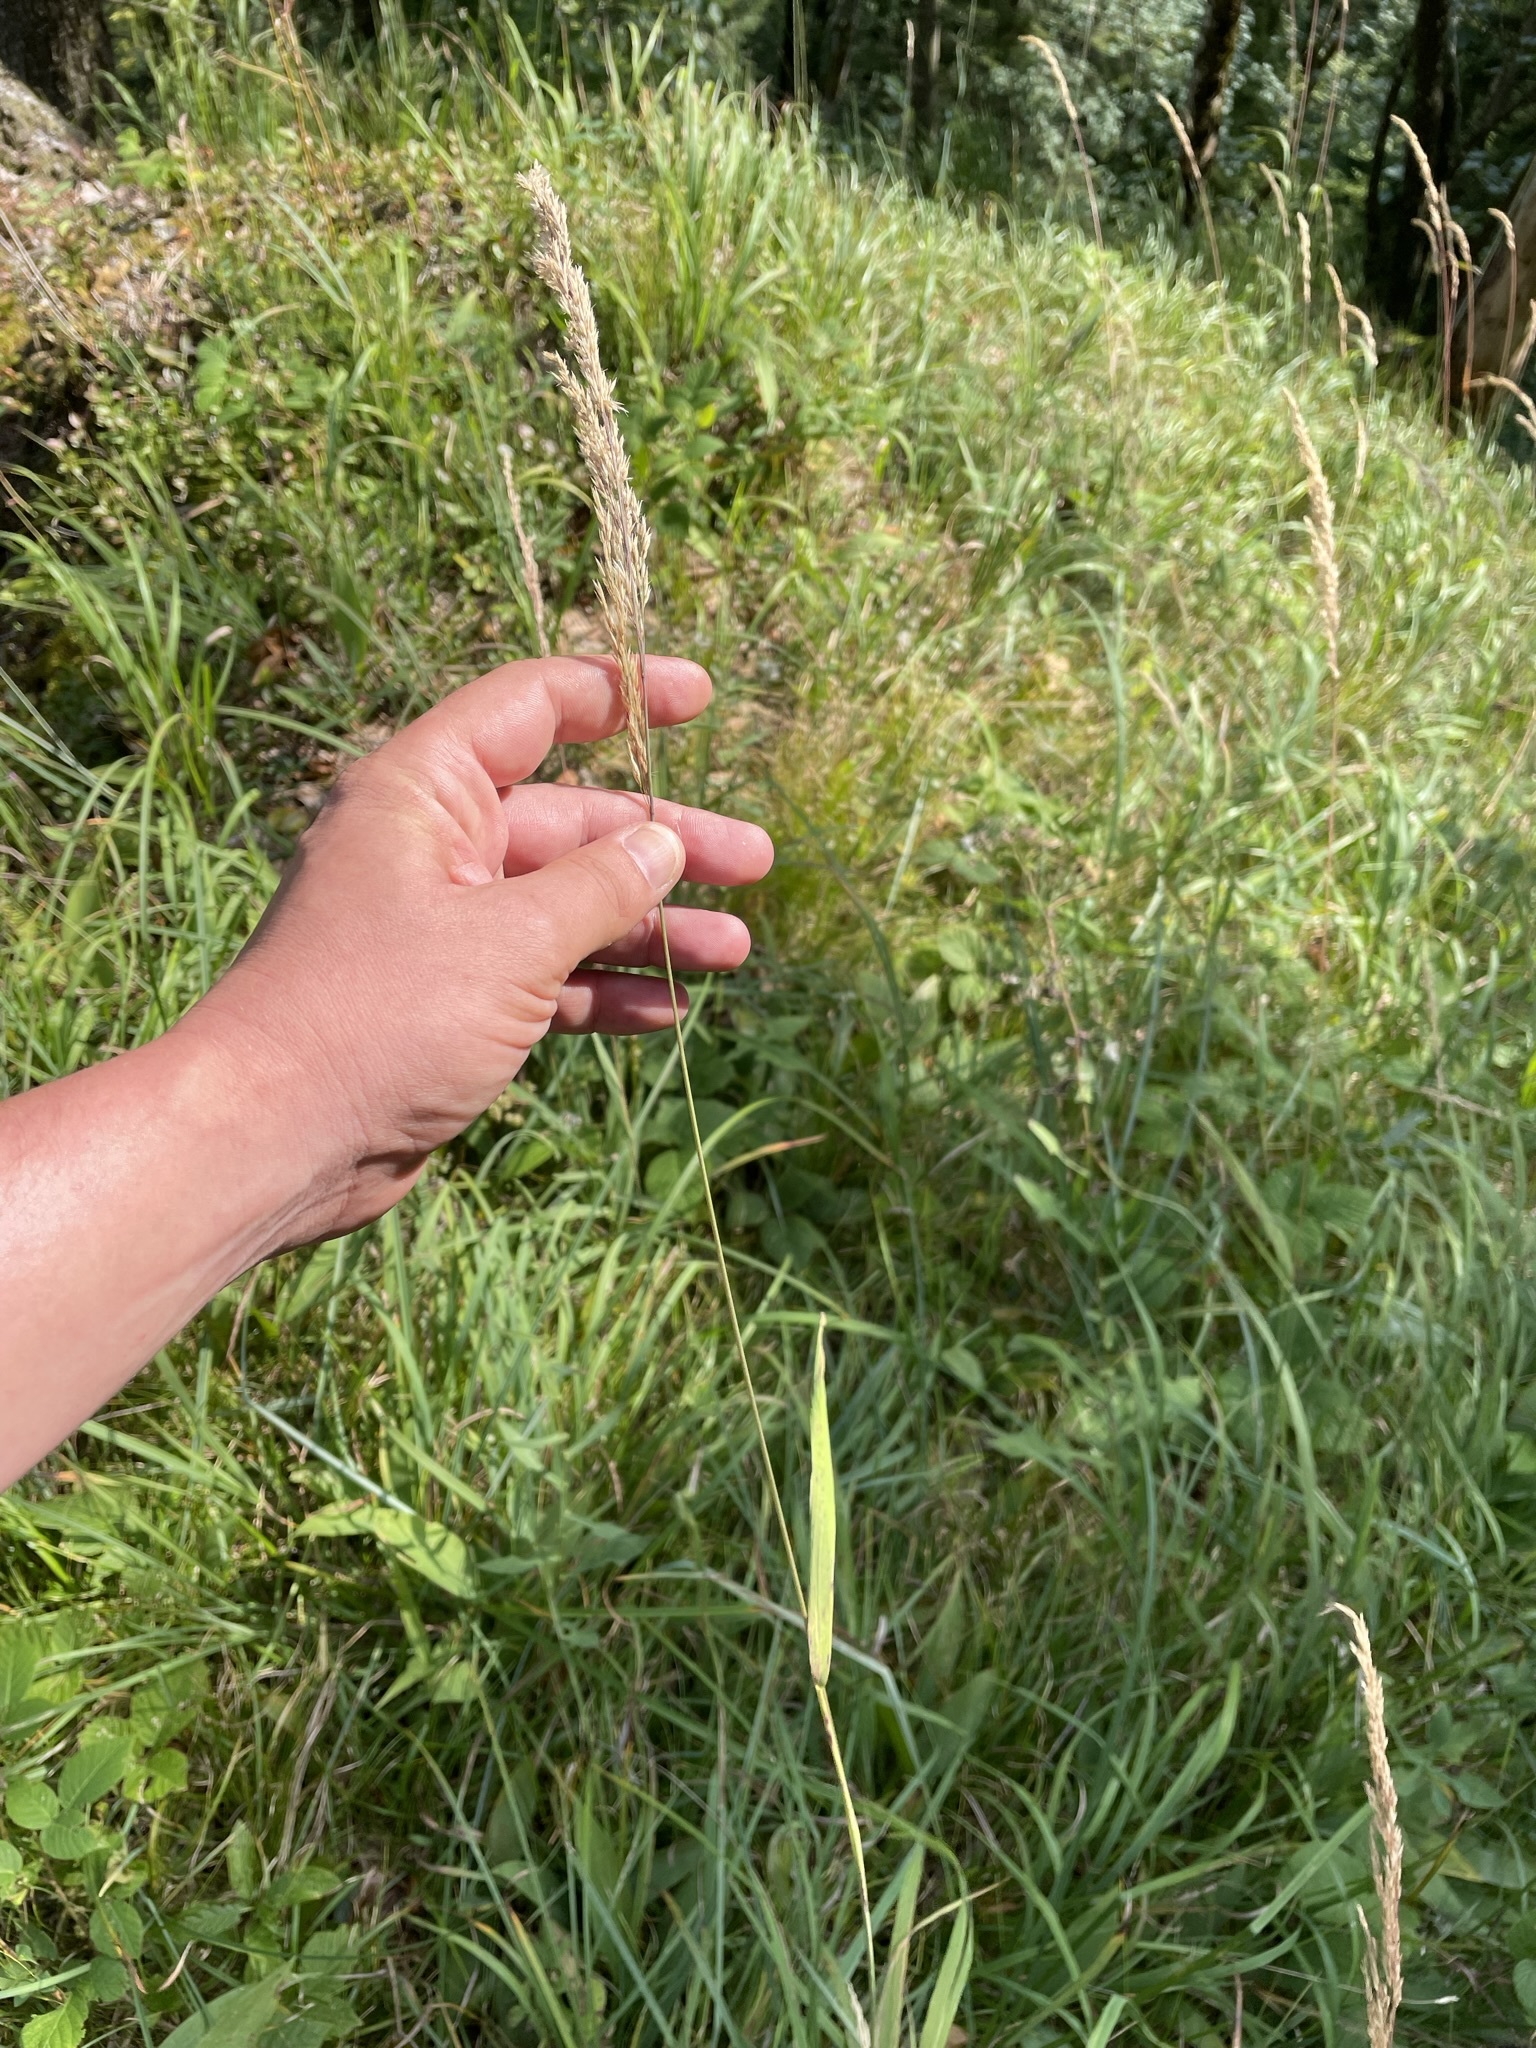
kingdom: Plantae
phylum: Tracheophyta
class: Liliopsida
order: Poales
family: Poaceae
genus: Calamagrostis
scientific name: Calamagrostis epigejos
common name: Wood small-reed
